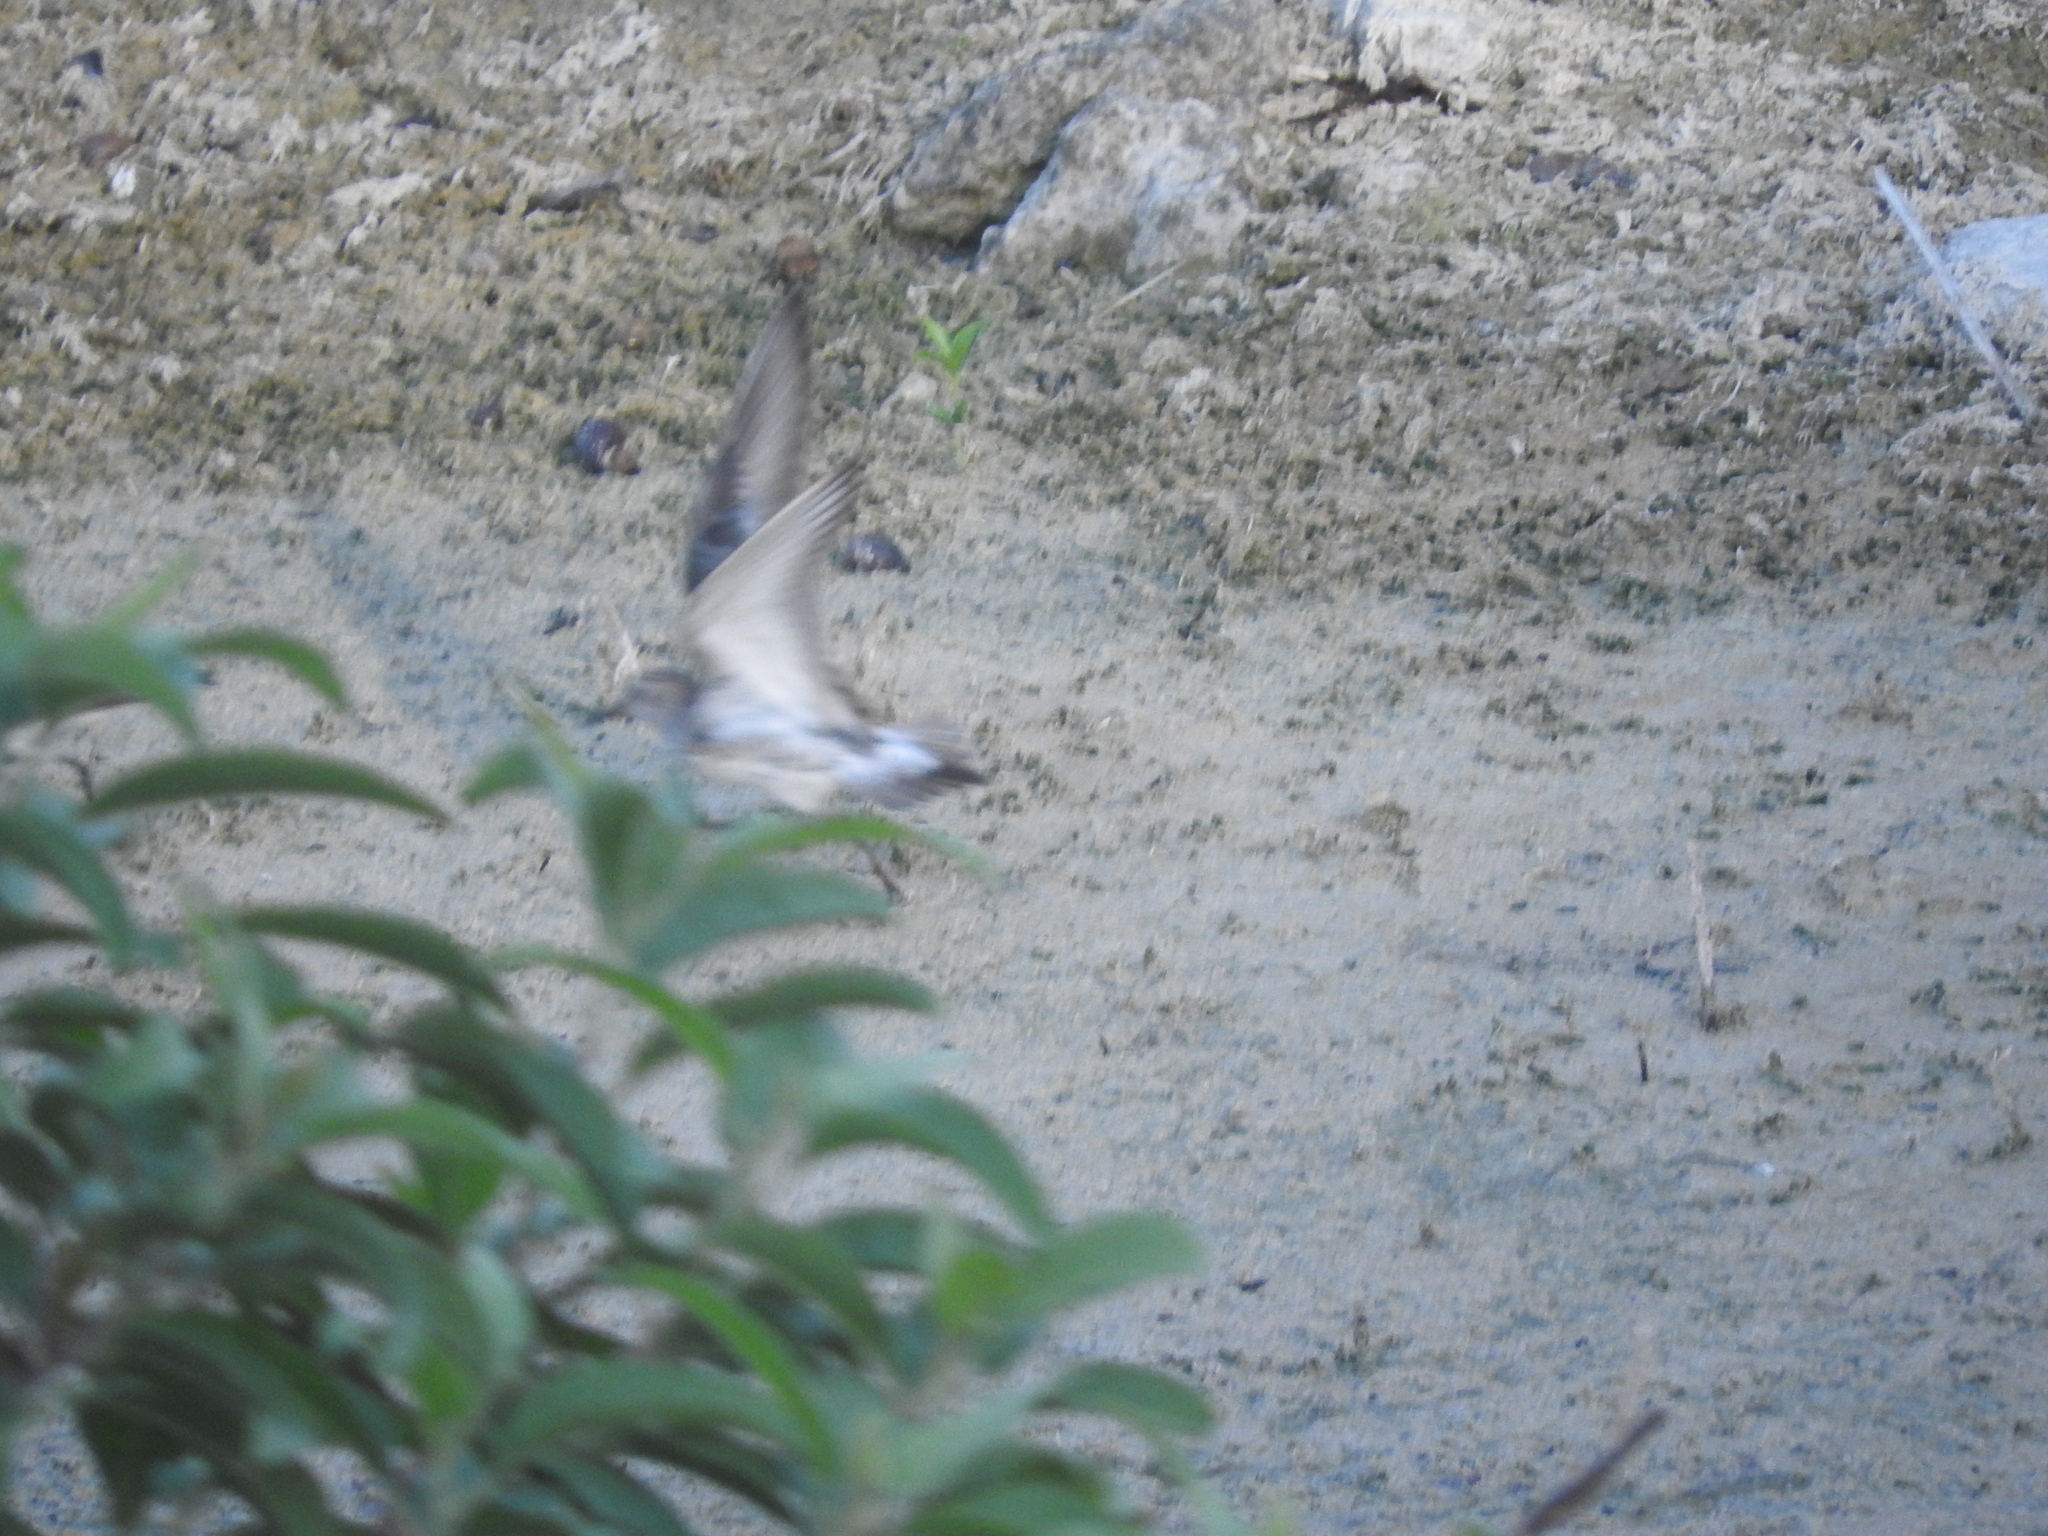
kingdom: Animalia
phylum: Chordata
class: Aves
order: Charadriiformes
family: Scolopacidae
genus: Calidris
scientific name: Calidris fuscicollis
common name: White-rumped sandpiper
